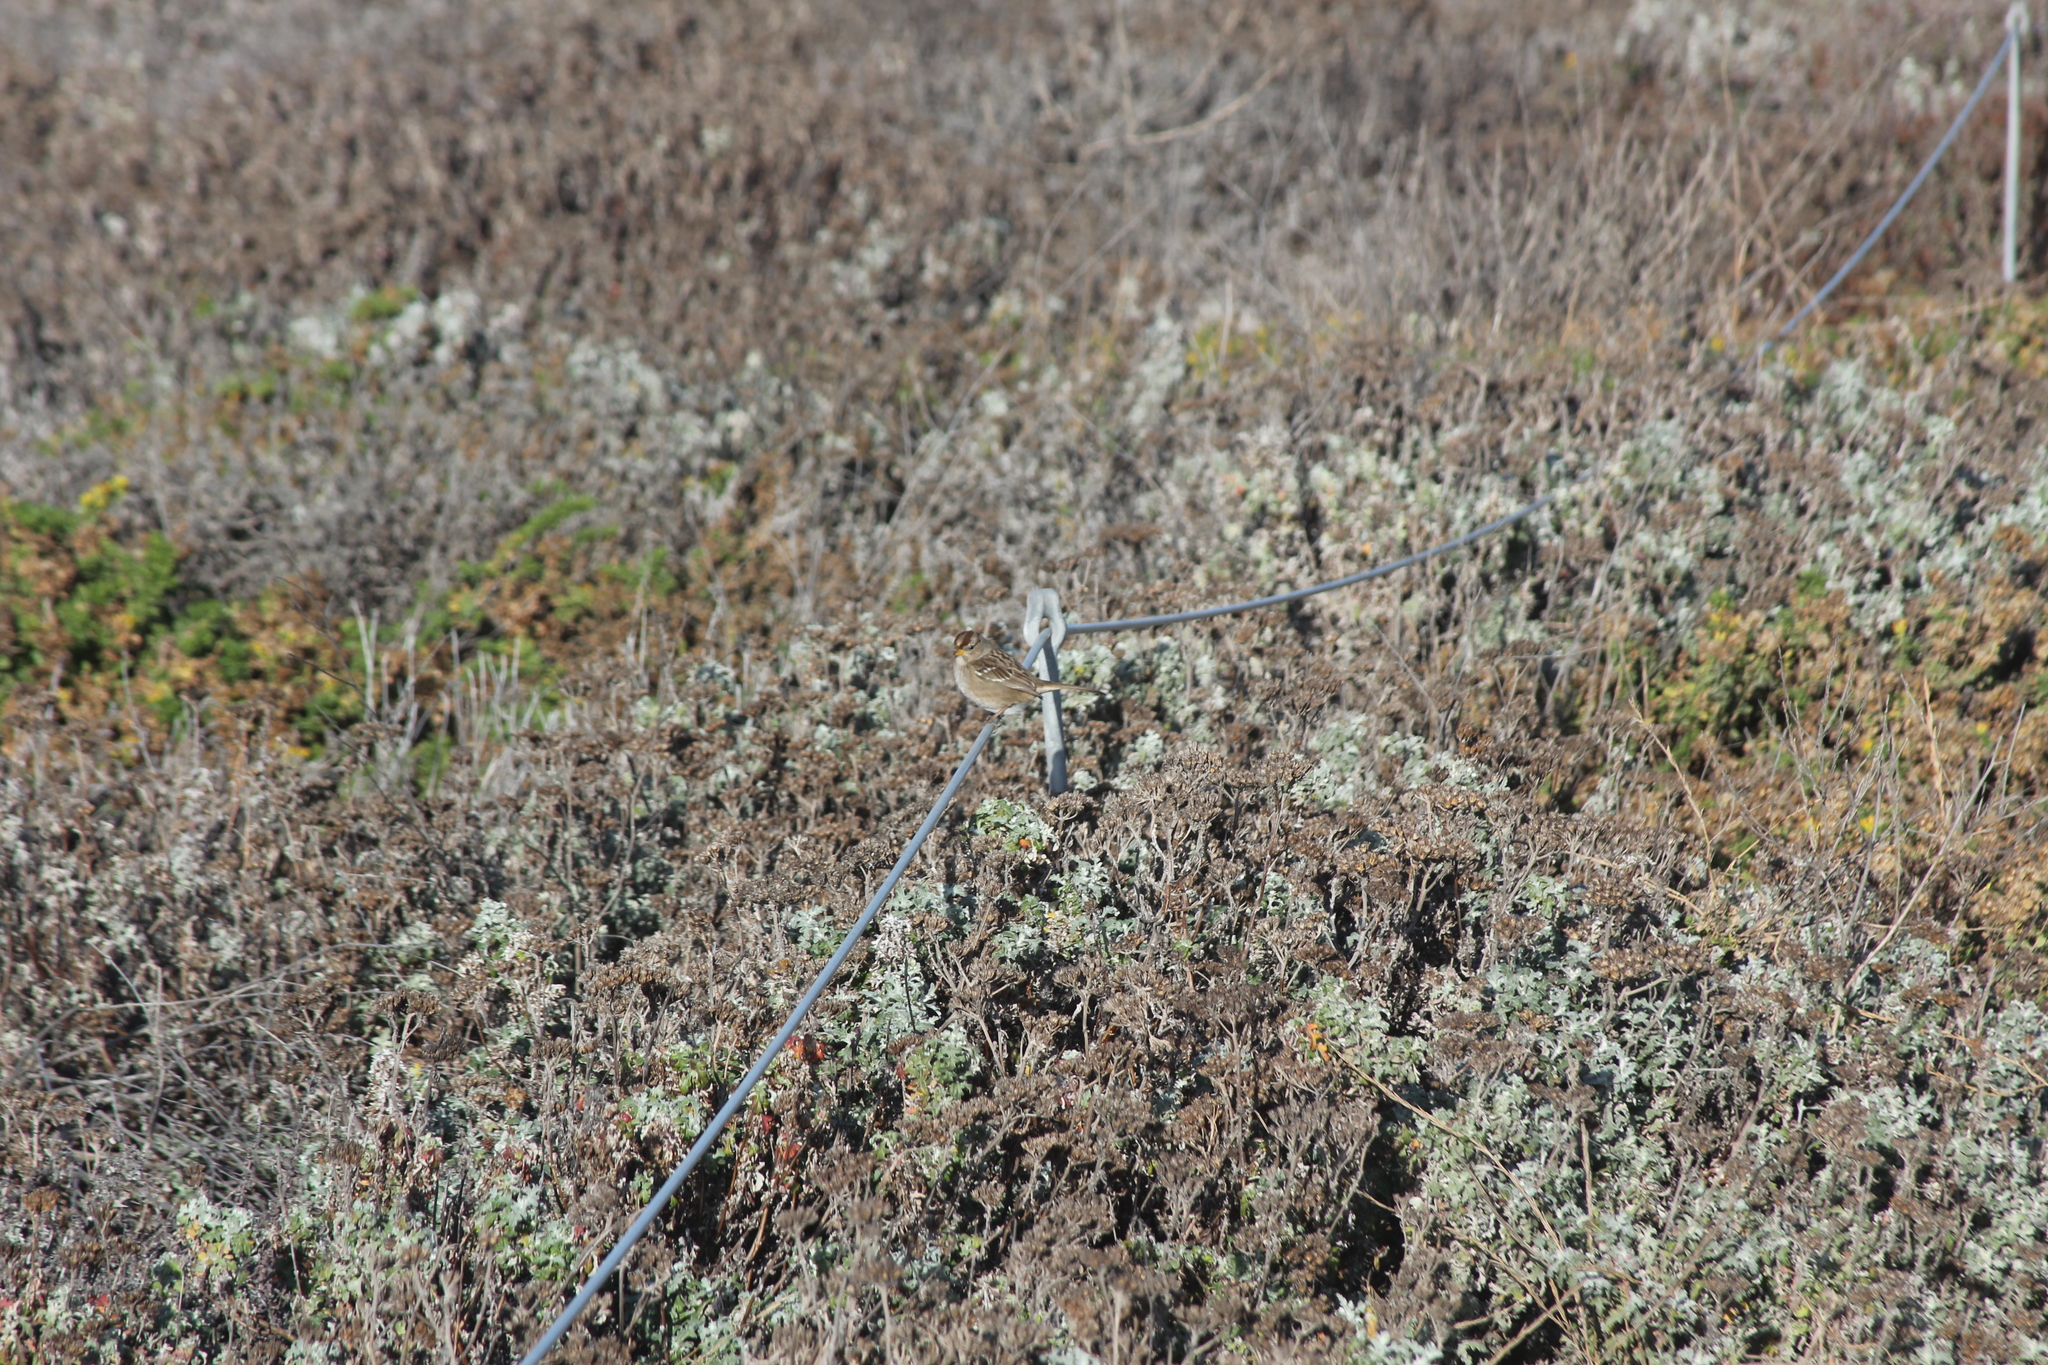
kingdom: Animalia
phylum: Chordata
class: Aves
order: Passeriformes
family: Passerellidae
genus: Zonotrichia
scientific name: Zonotrichia leucophrys
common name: White-crowned sparrow
